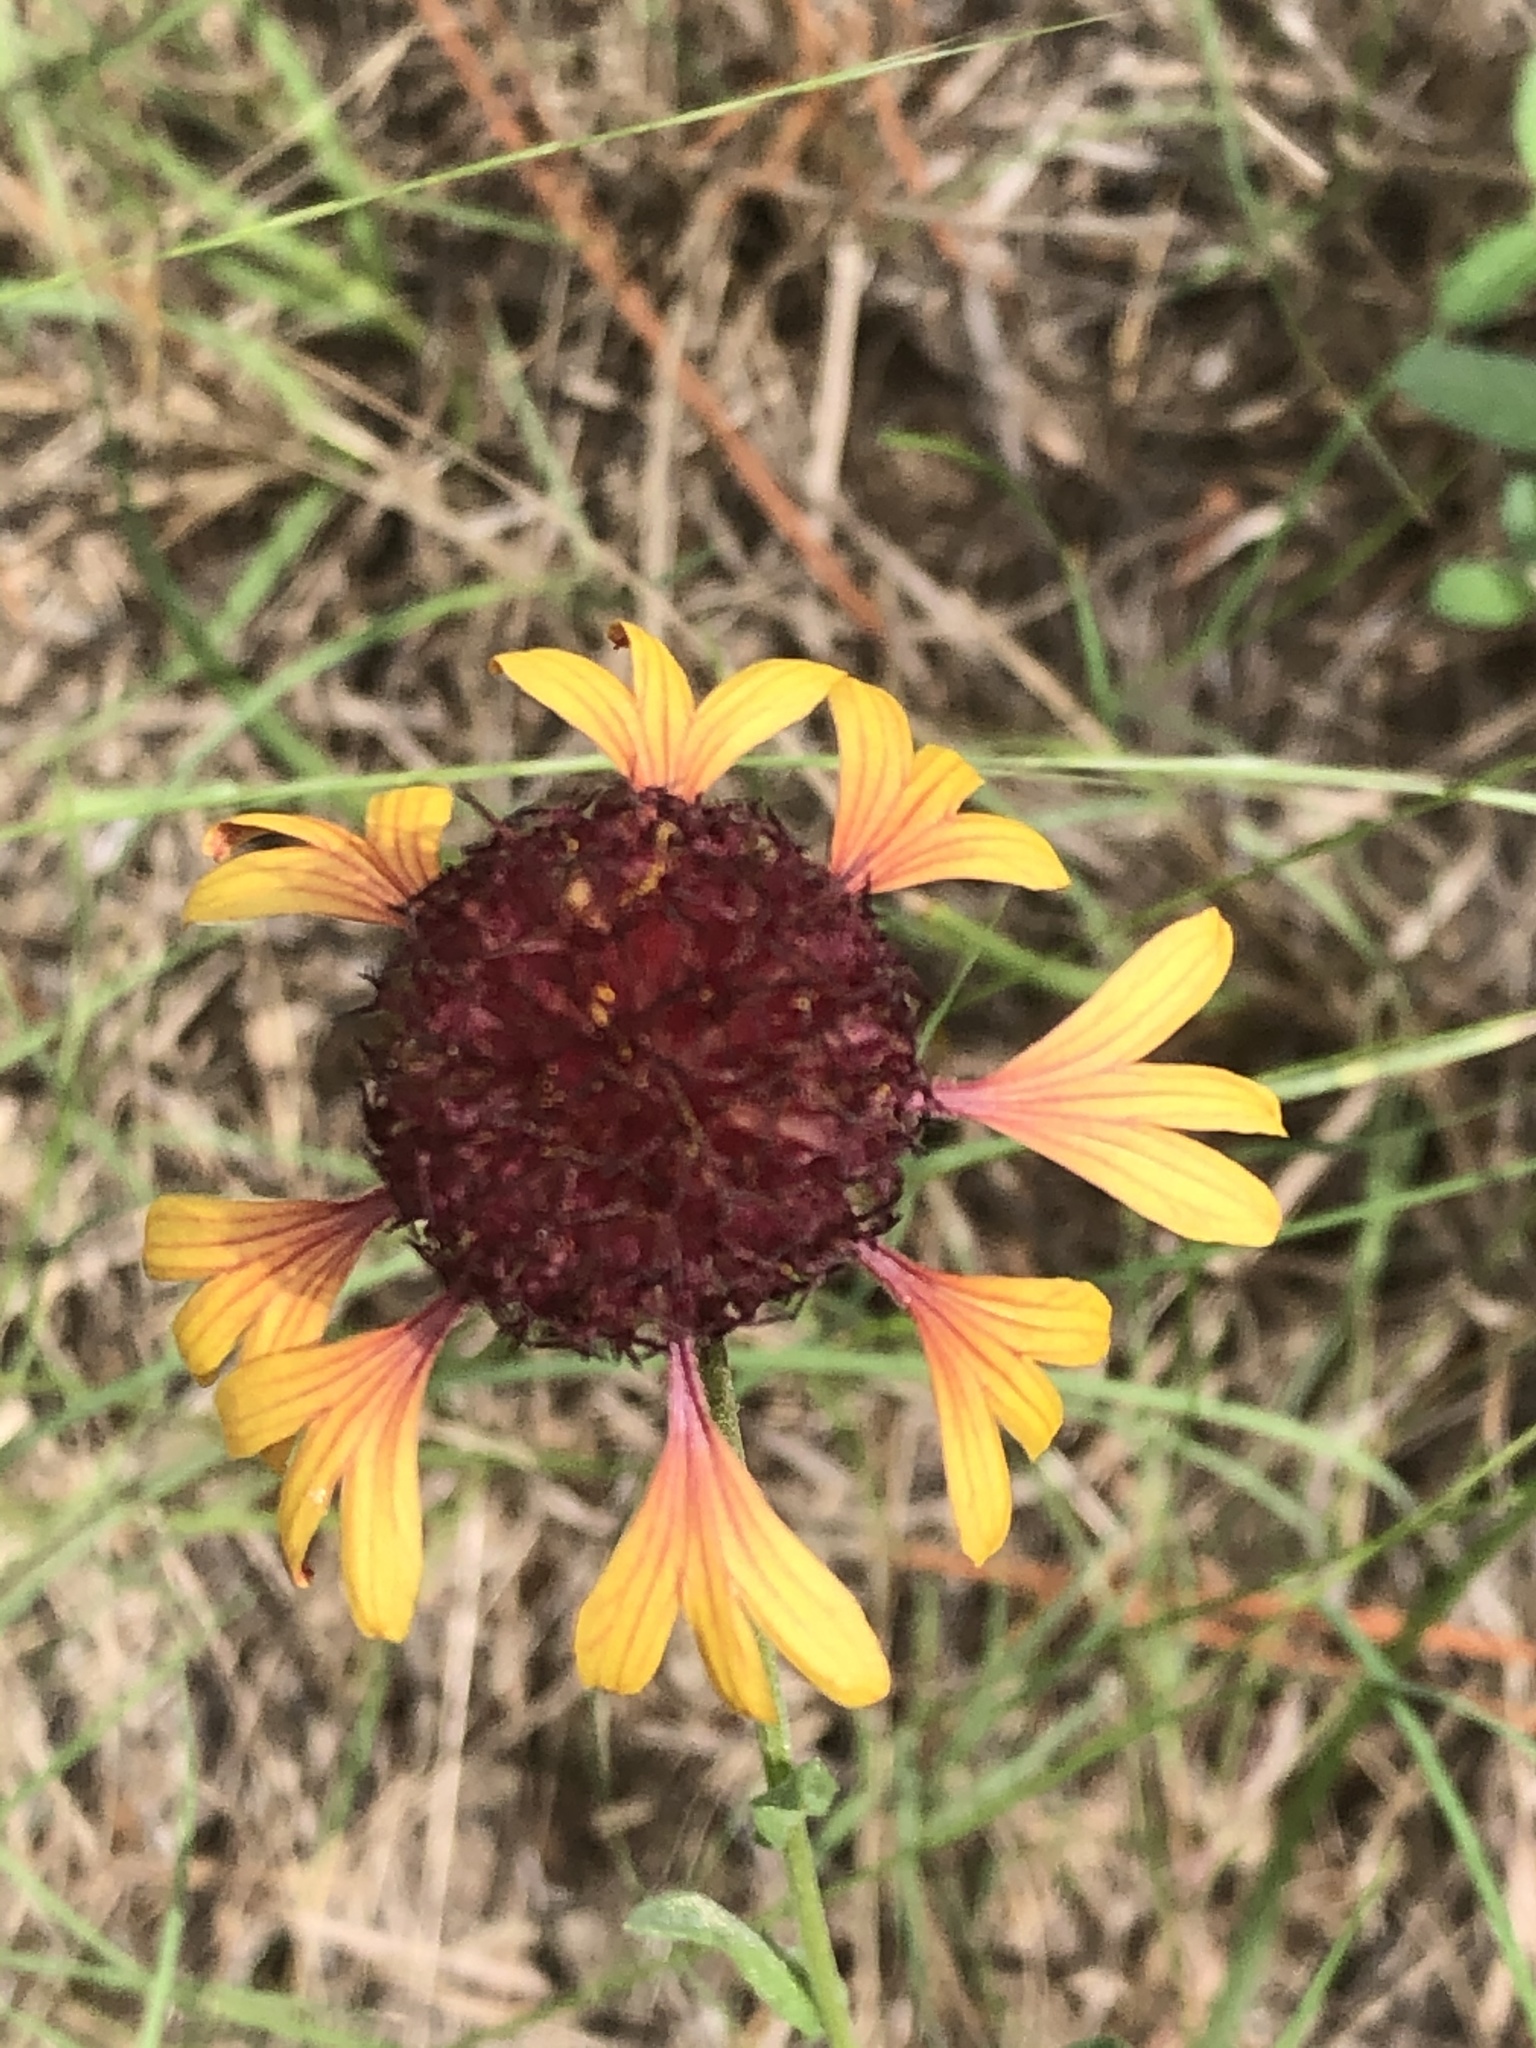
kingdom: Plantae
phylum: Tracheophyta
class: Magnoliopsida
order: Asterales
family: Asteraceae
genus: Gaillardia
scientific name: Gaillardia aestivalis
